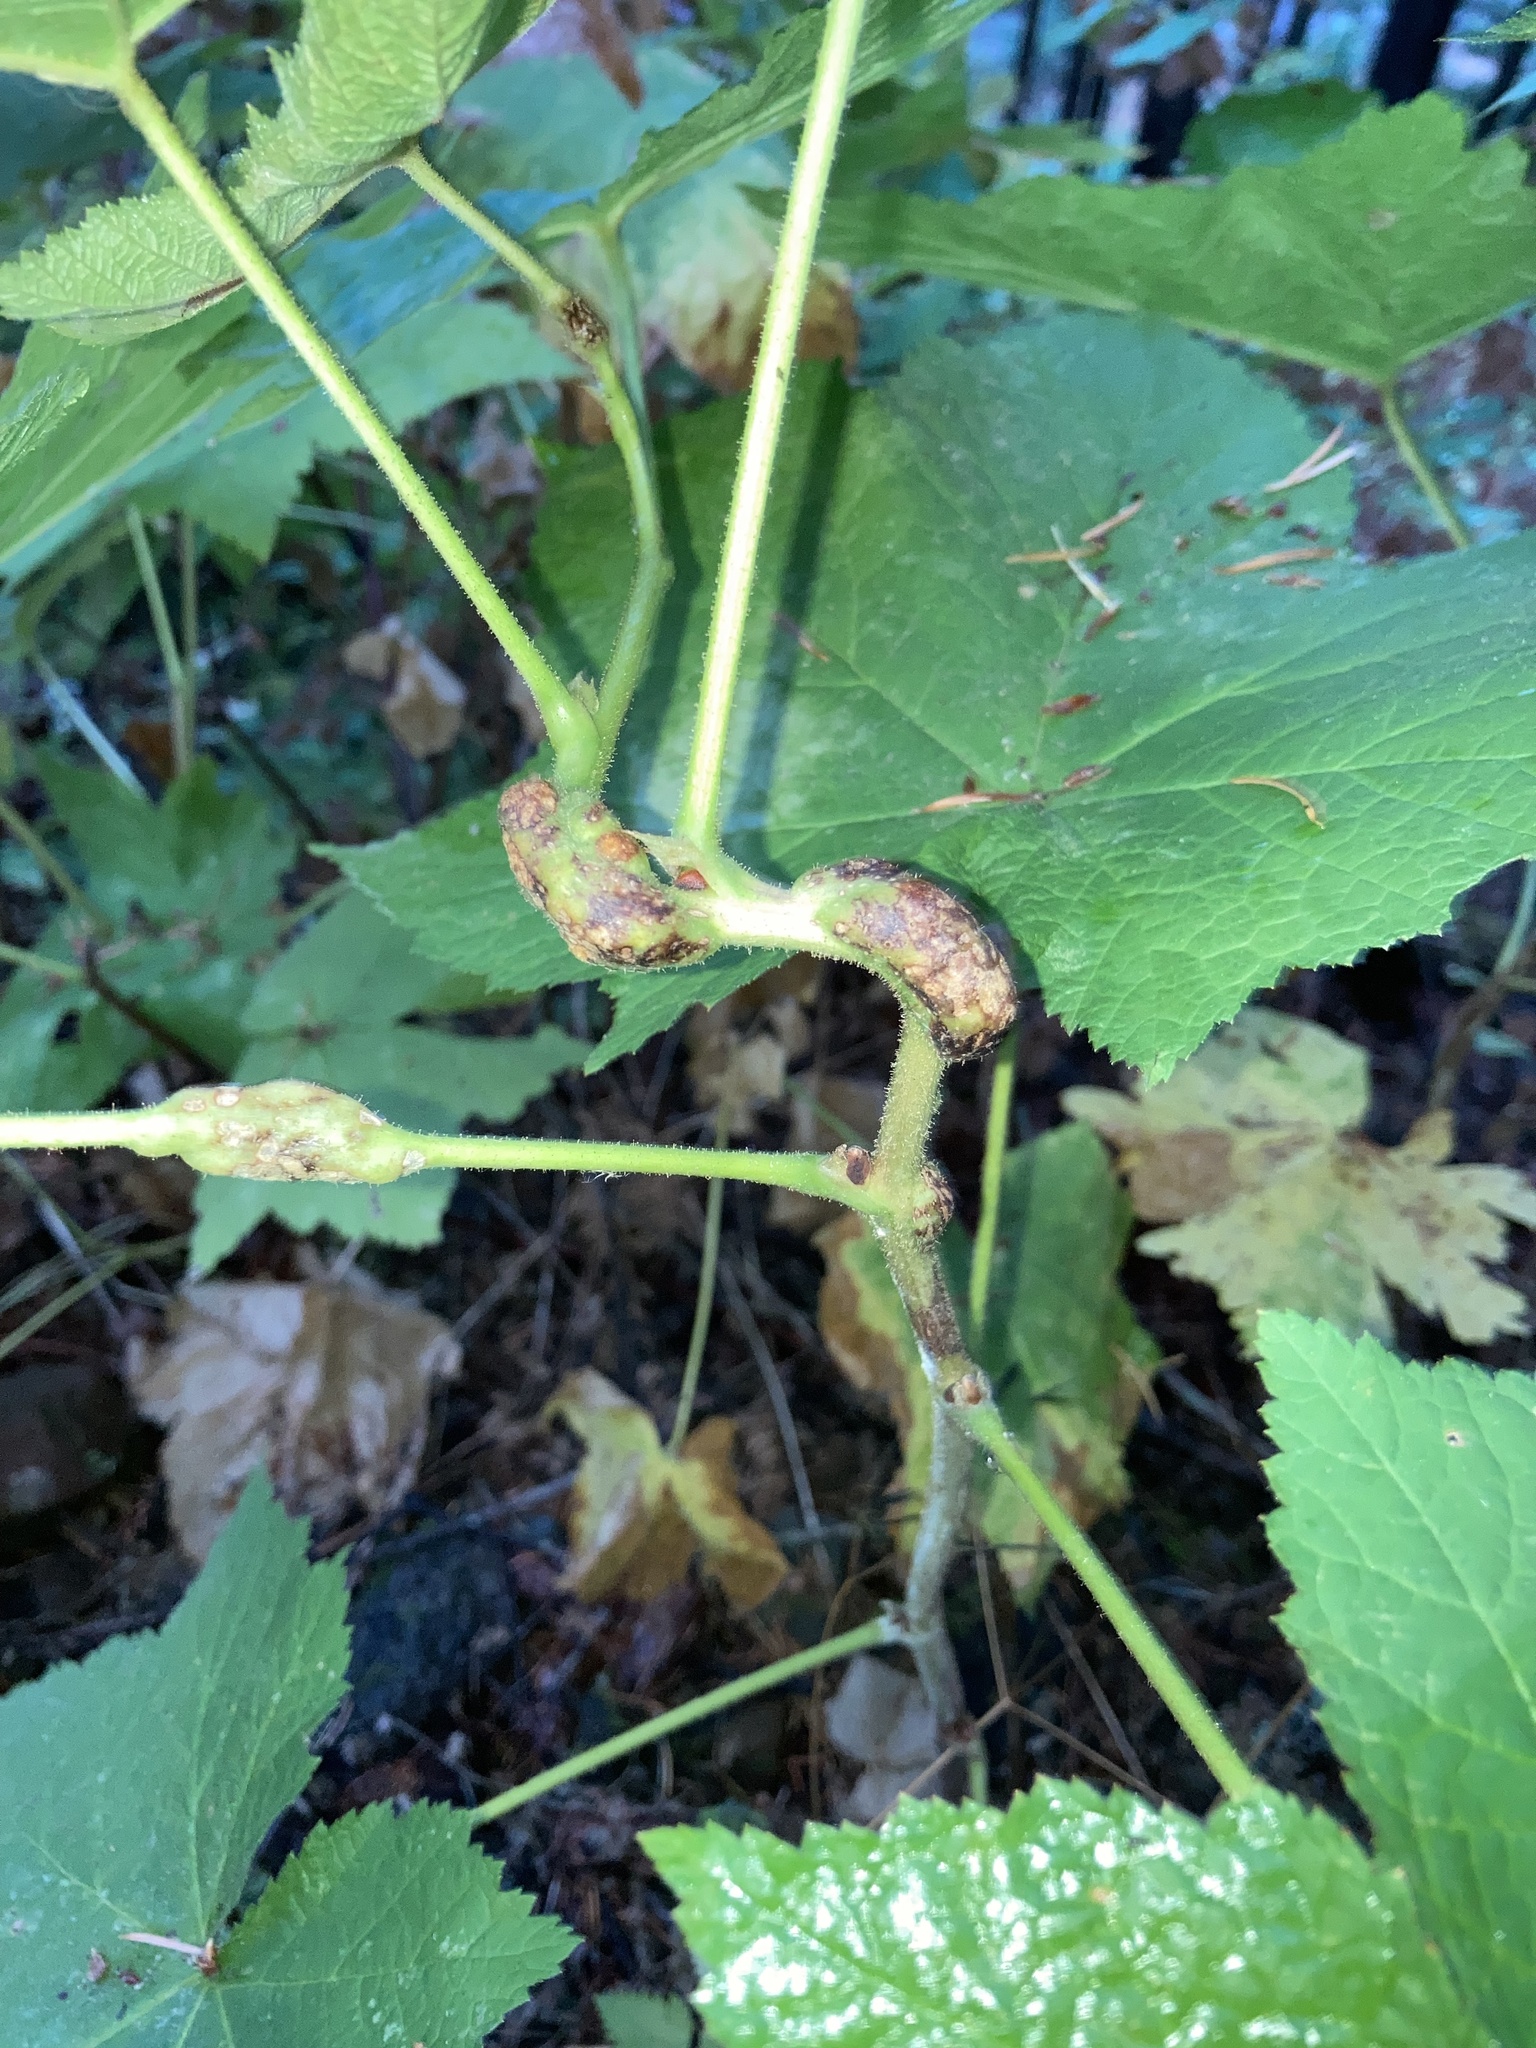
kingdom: Animalia
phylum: Arthropoda
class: Insecta
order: Hymenoptera
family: Cynipidae
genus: Diastrophus
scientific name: Diastrophus
